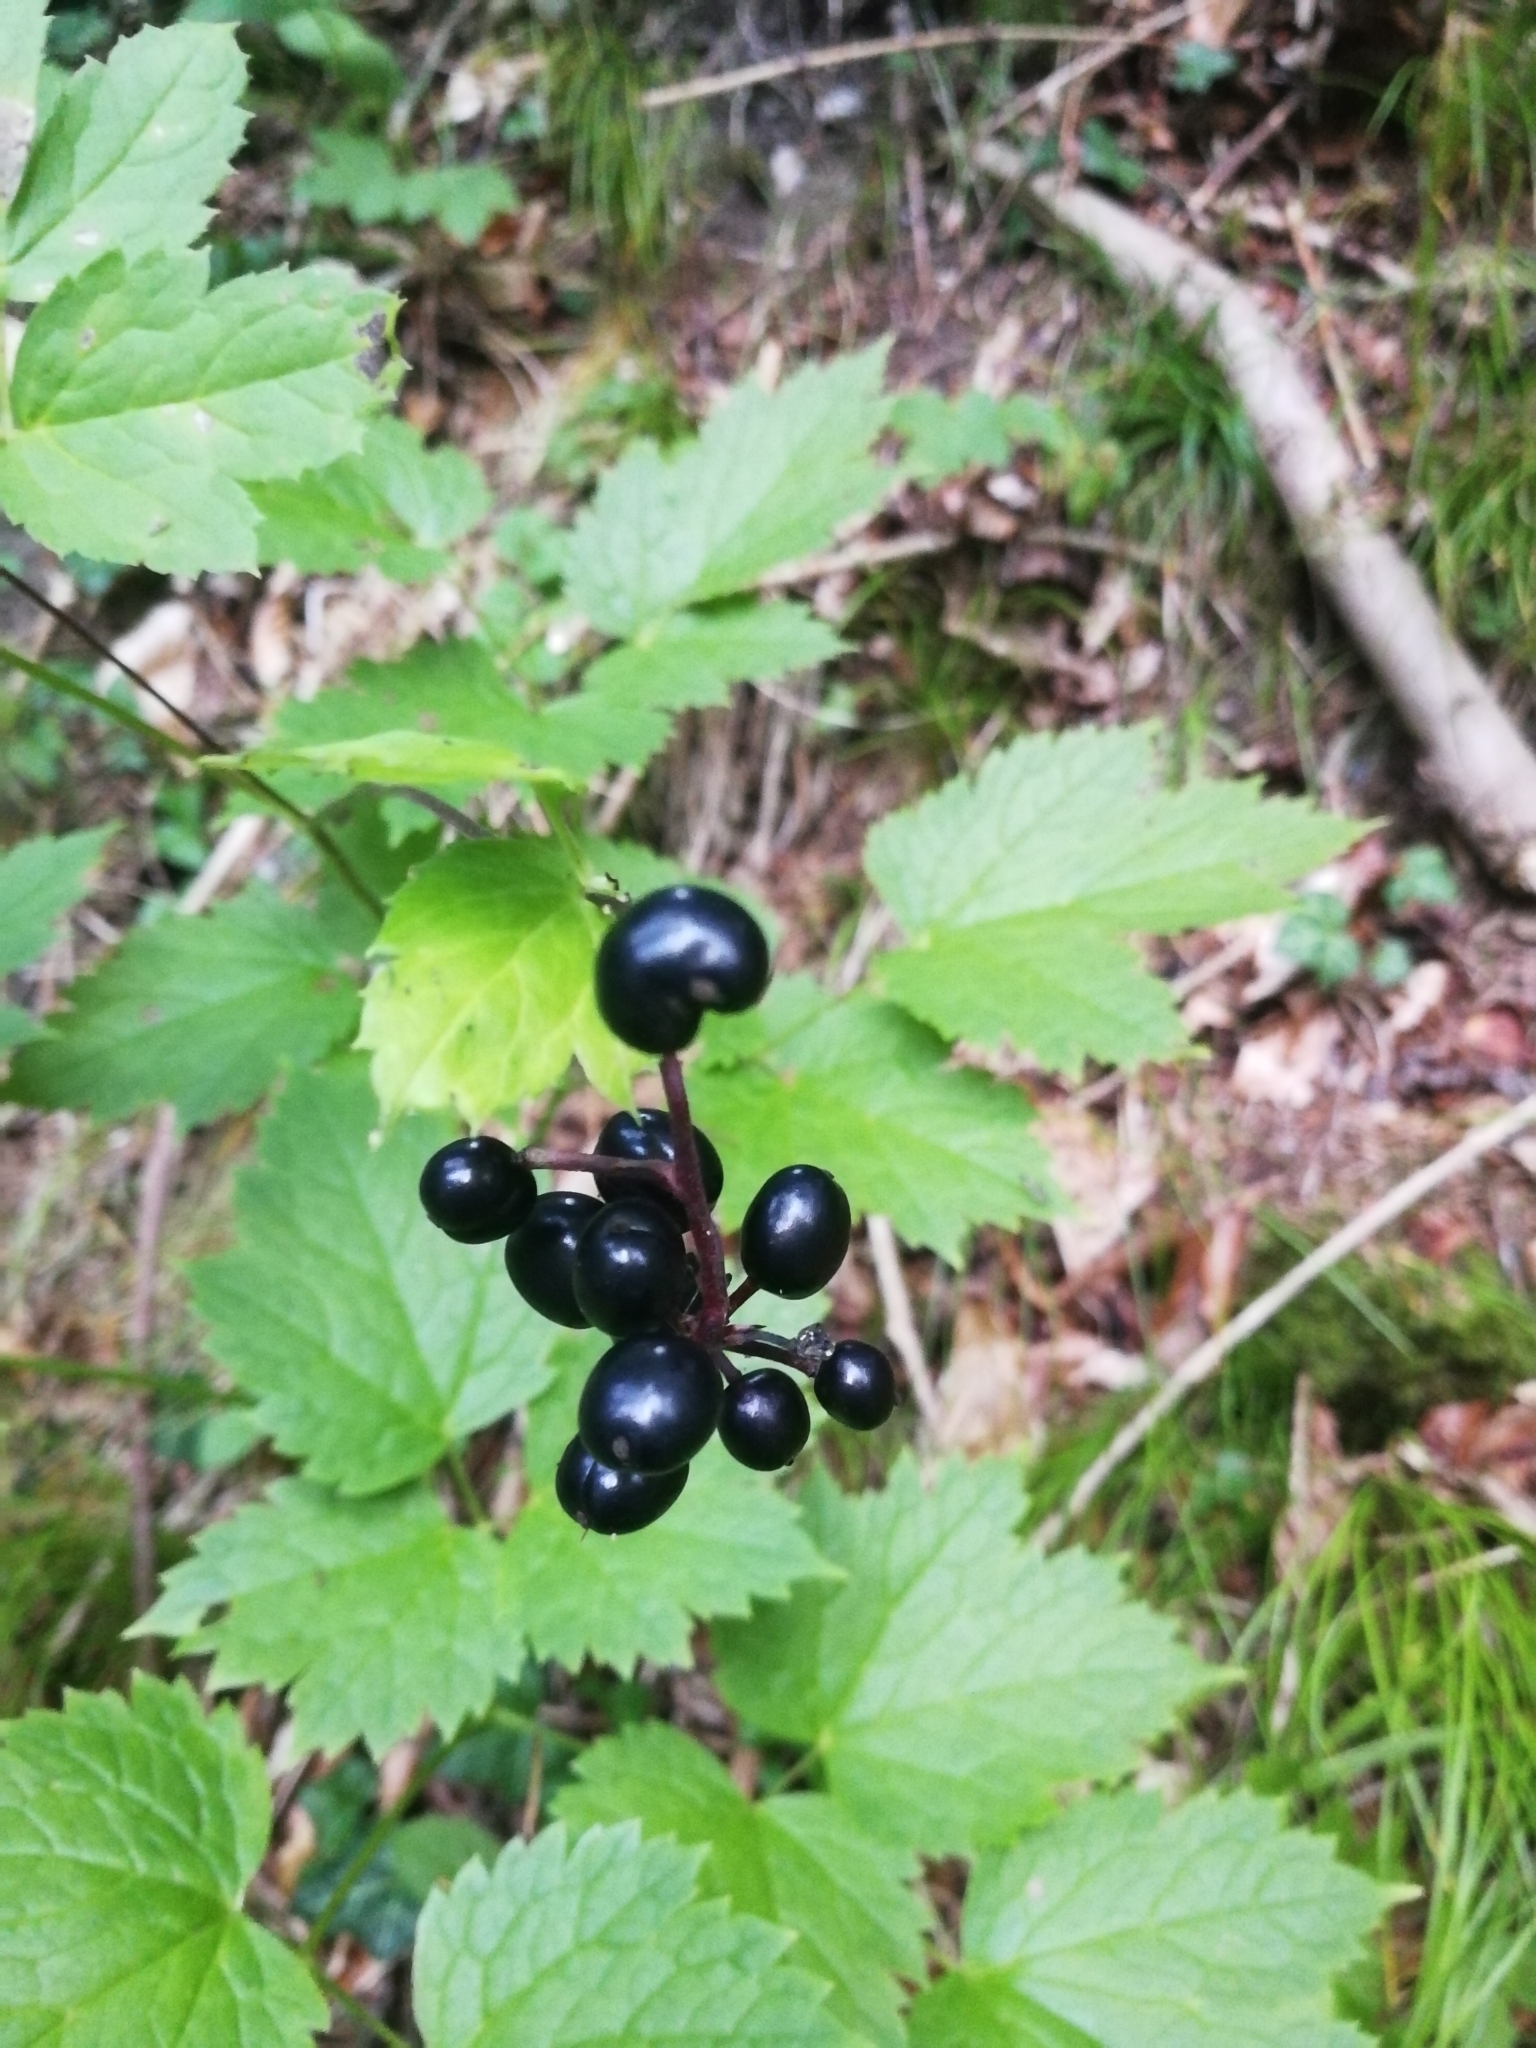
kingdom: Plantae
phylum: Tracheophyta
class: Magnoliopsida
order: Ranunculales
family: Ranunculaceae
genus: Actaea
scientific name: Actaea spicata
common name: Baneberry
